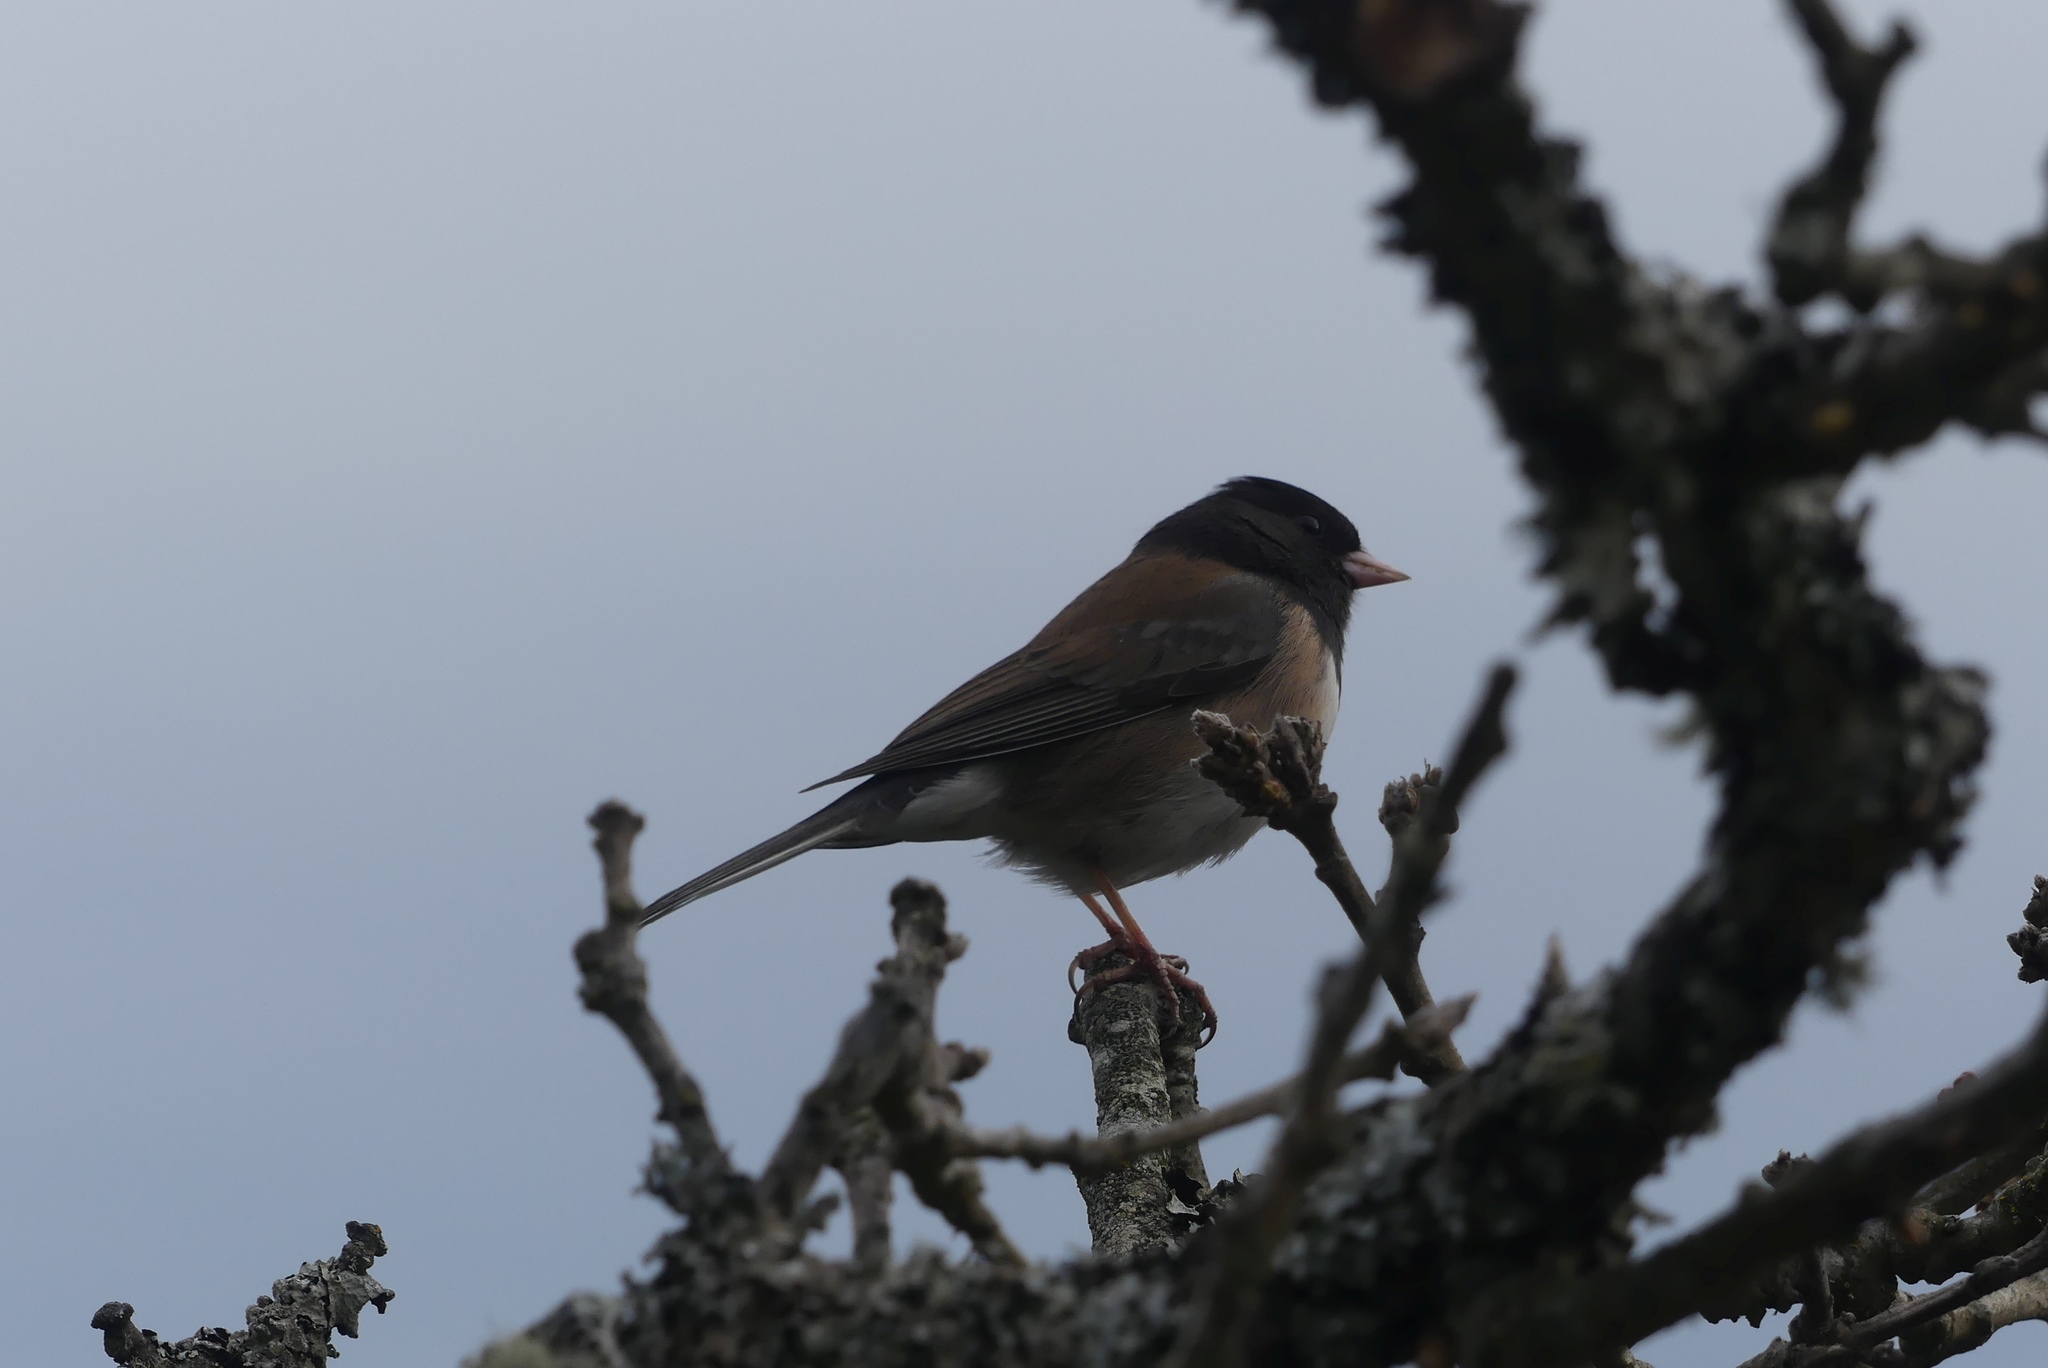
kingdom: Animalia
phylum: Chordata
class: Aves
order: Passeriformes
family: Passerellidae
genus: Junco
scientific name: Junco hyemalis
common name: Dark-eyed junco
